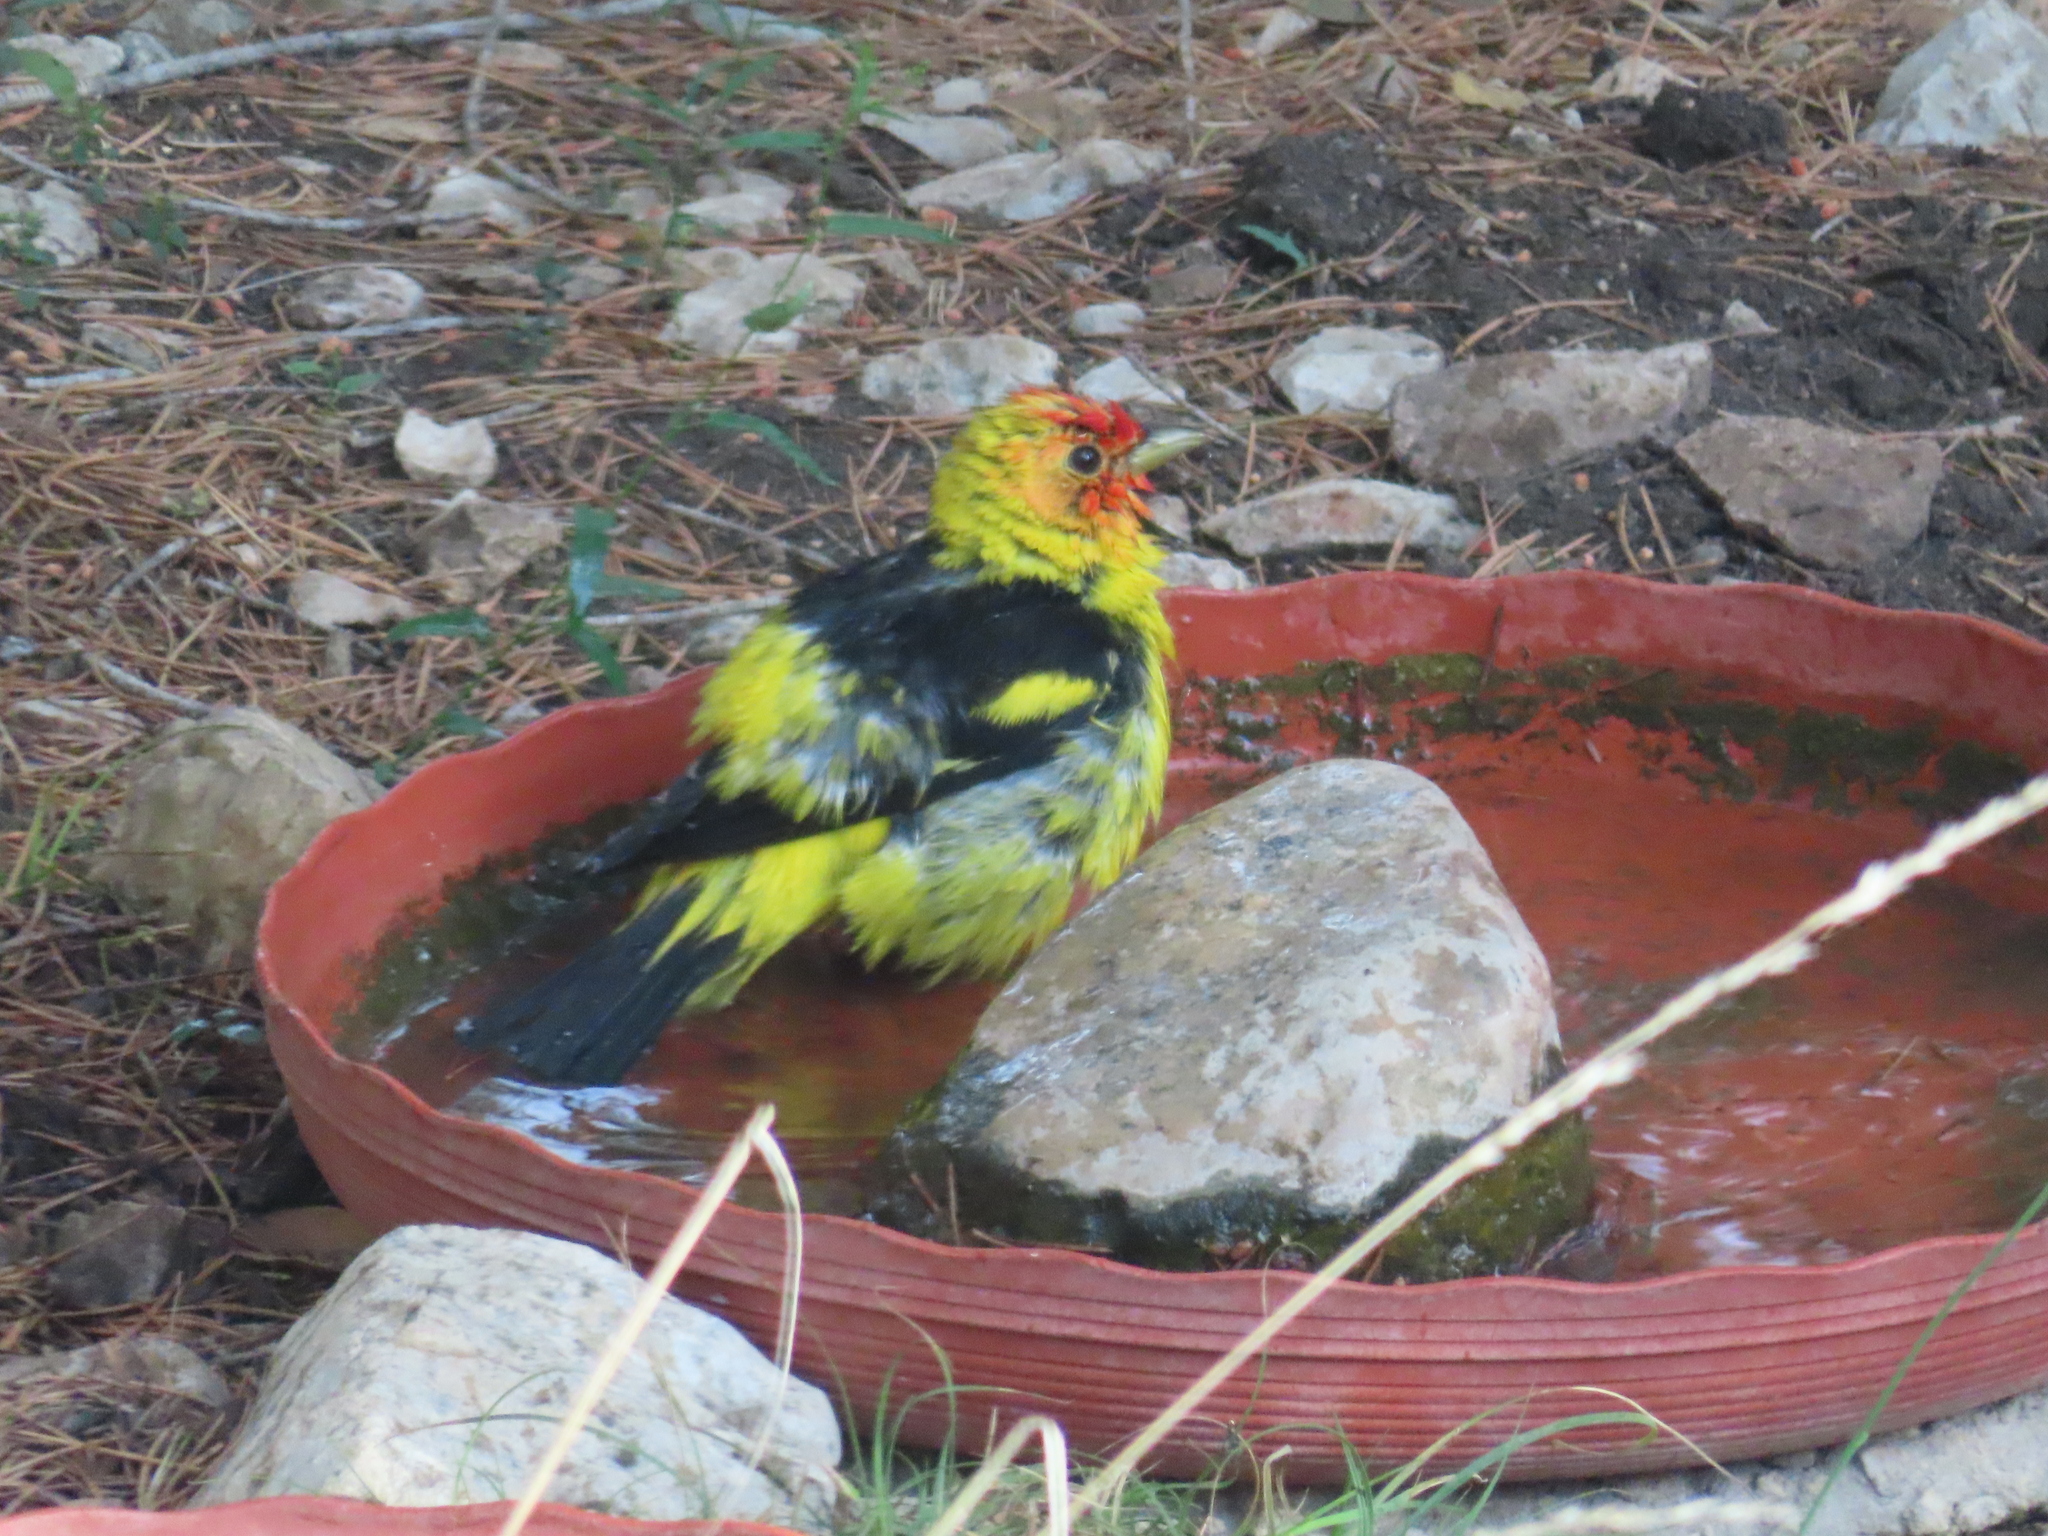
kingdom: Animalia
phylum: Chordata
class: Aves
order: Passeriformes
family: Cardinalidae
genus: Piranga
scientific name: Piranga ludoviciana
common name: Western tanager
